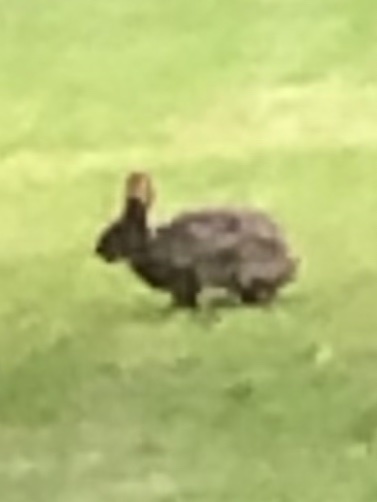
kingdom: Animalia
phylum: Chordata
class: Mammalia
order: Lagomorpha
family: Leporidae
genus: Sylvilagus
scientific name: Sylvilagus floridanus
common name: Eastern cottontail
